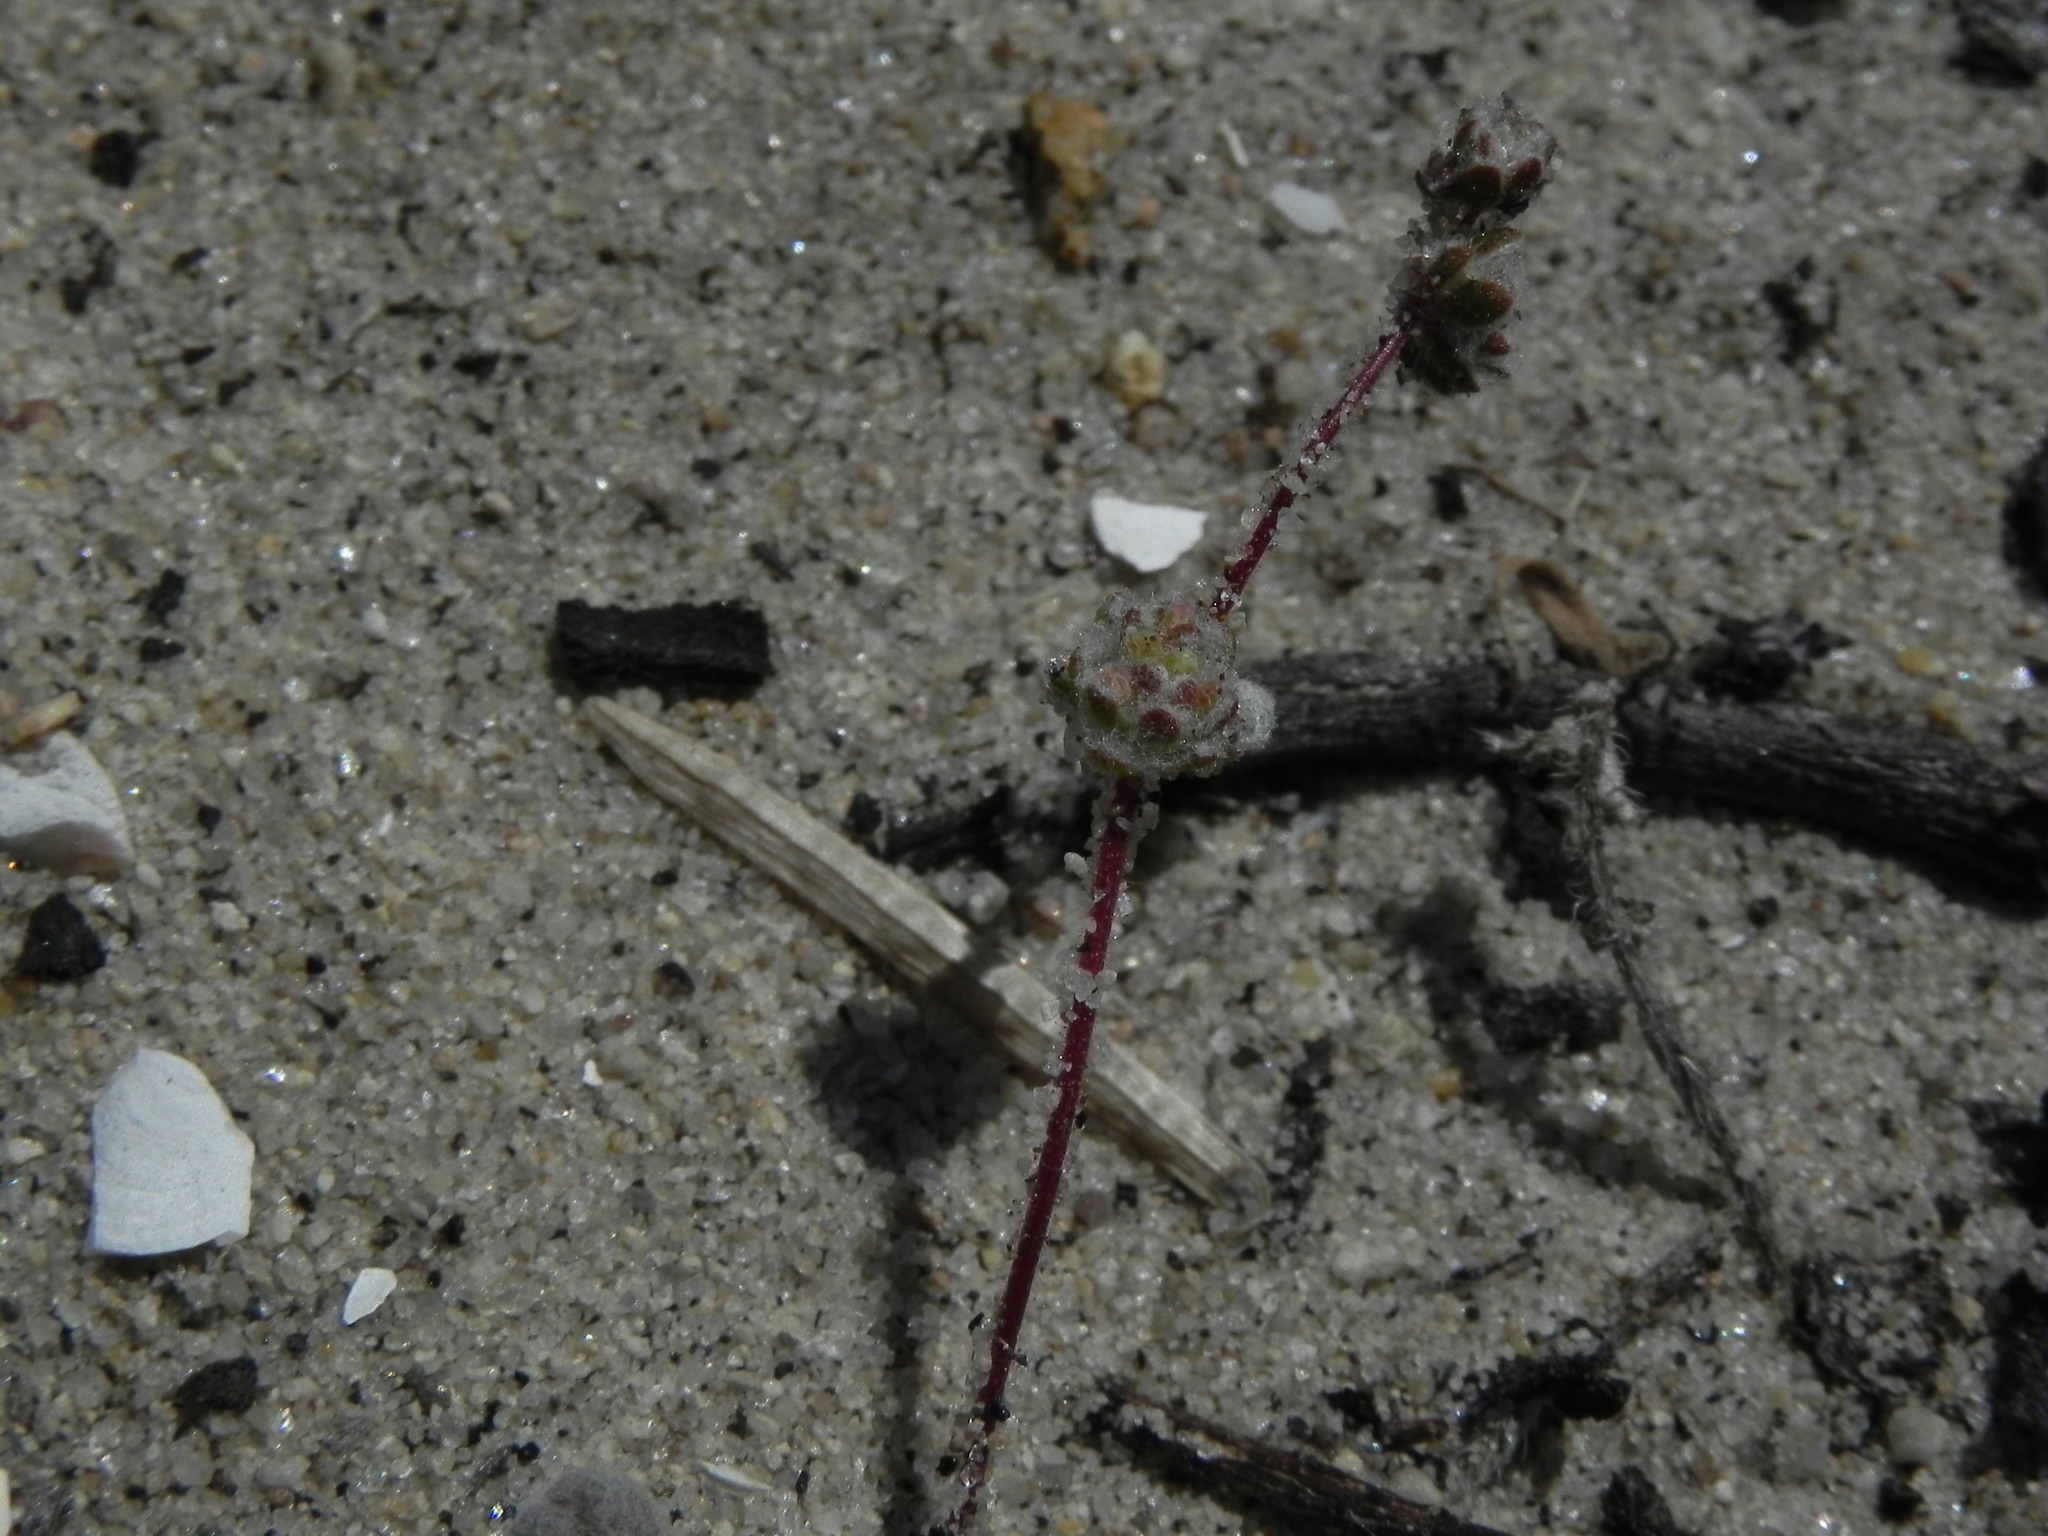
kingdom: Plantae
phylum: Tracheophyta
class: Magnoliopsida
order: Caryophyllales
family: Polygonaceae
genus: Nemacaulis
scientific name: Nemacaulis denudata
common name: Woolly-heads
